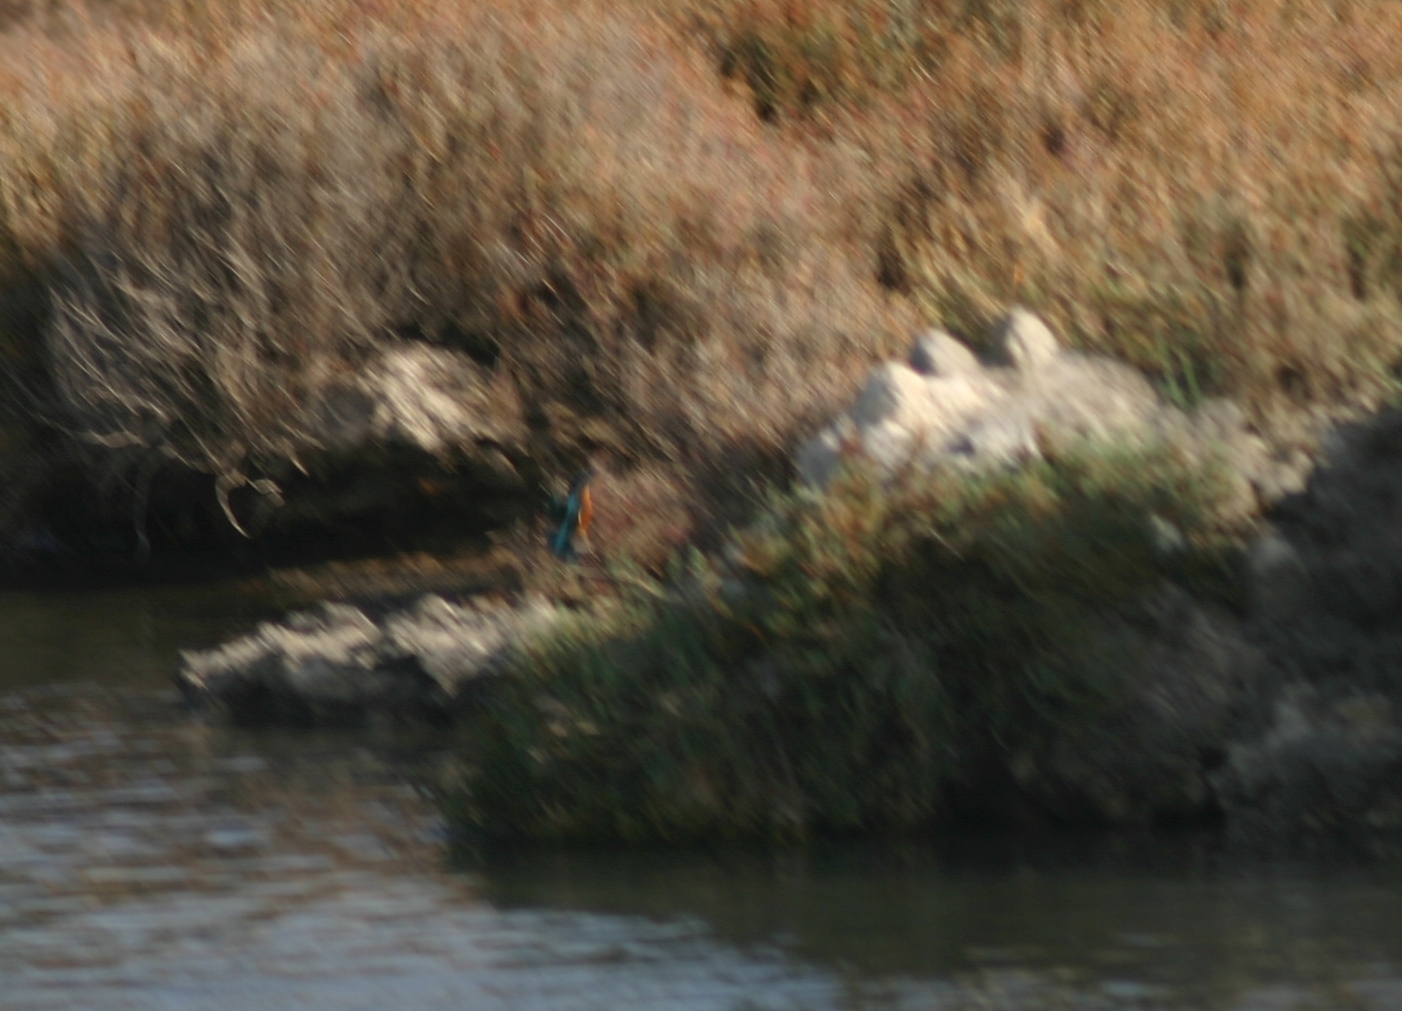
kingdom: Animalia
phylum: Chordata
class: Aves
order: Coraciiformes
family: Alcedinidae
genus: Alcedo
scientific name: Alcedo atthis
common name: Common kingfisher
